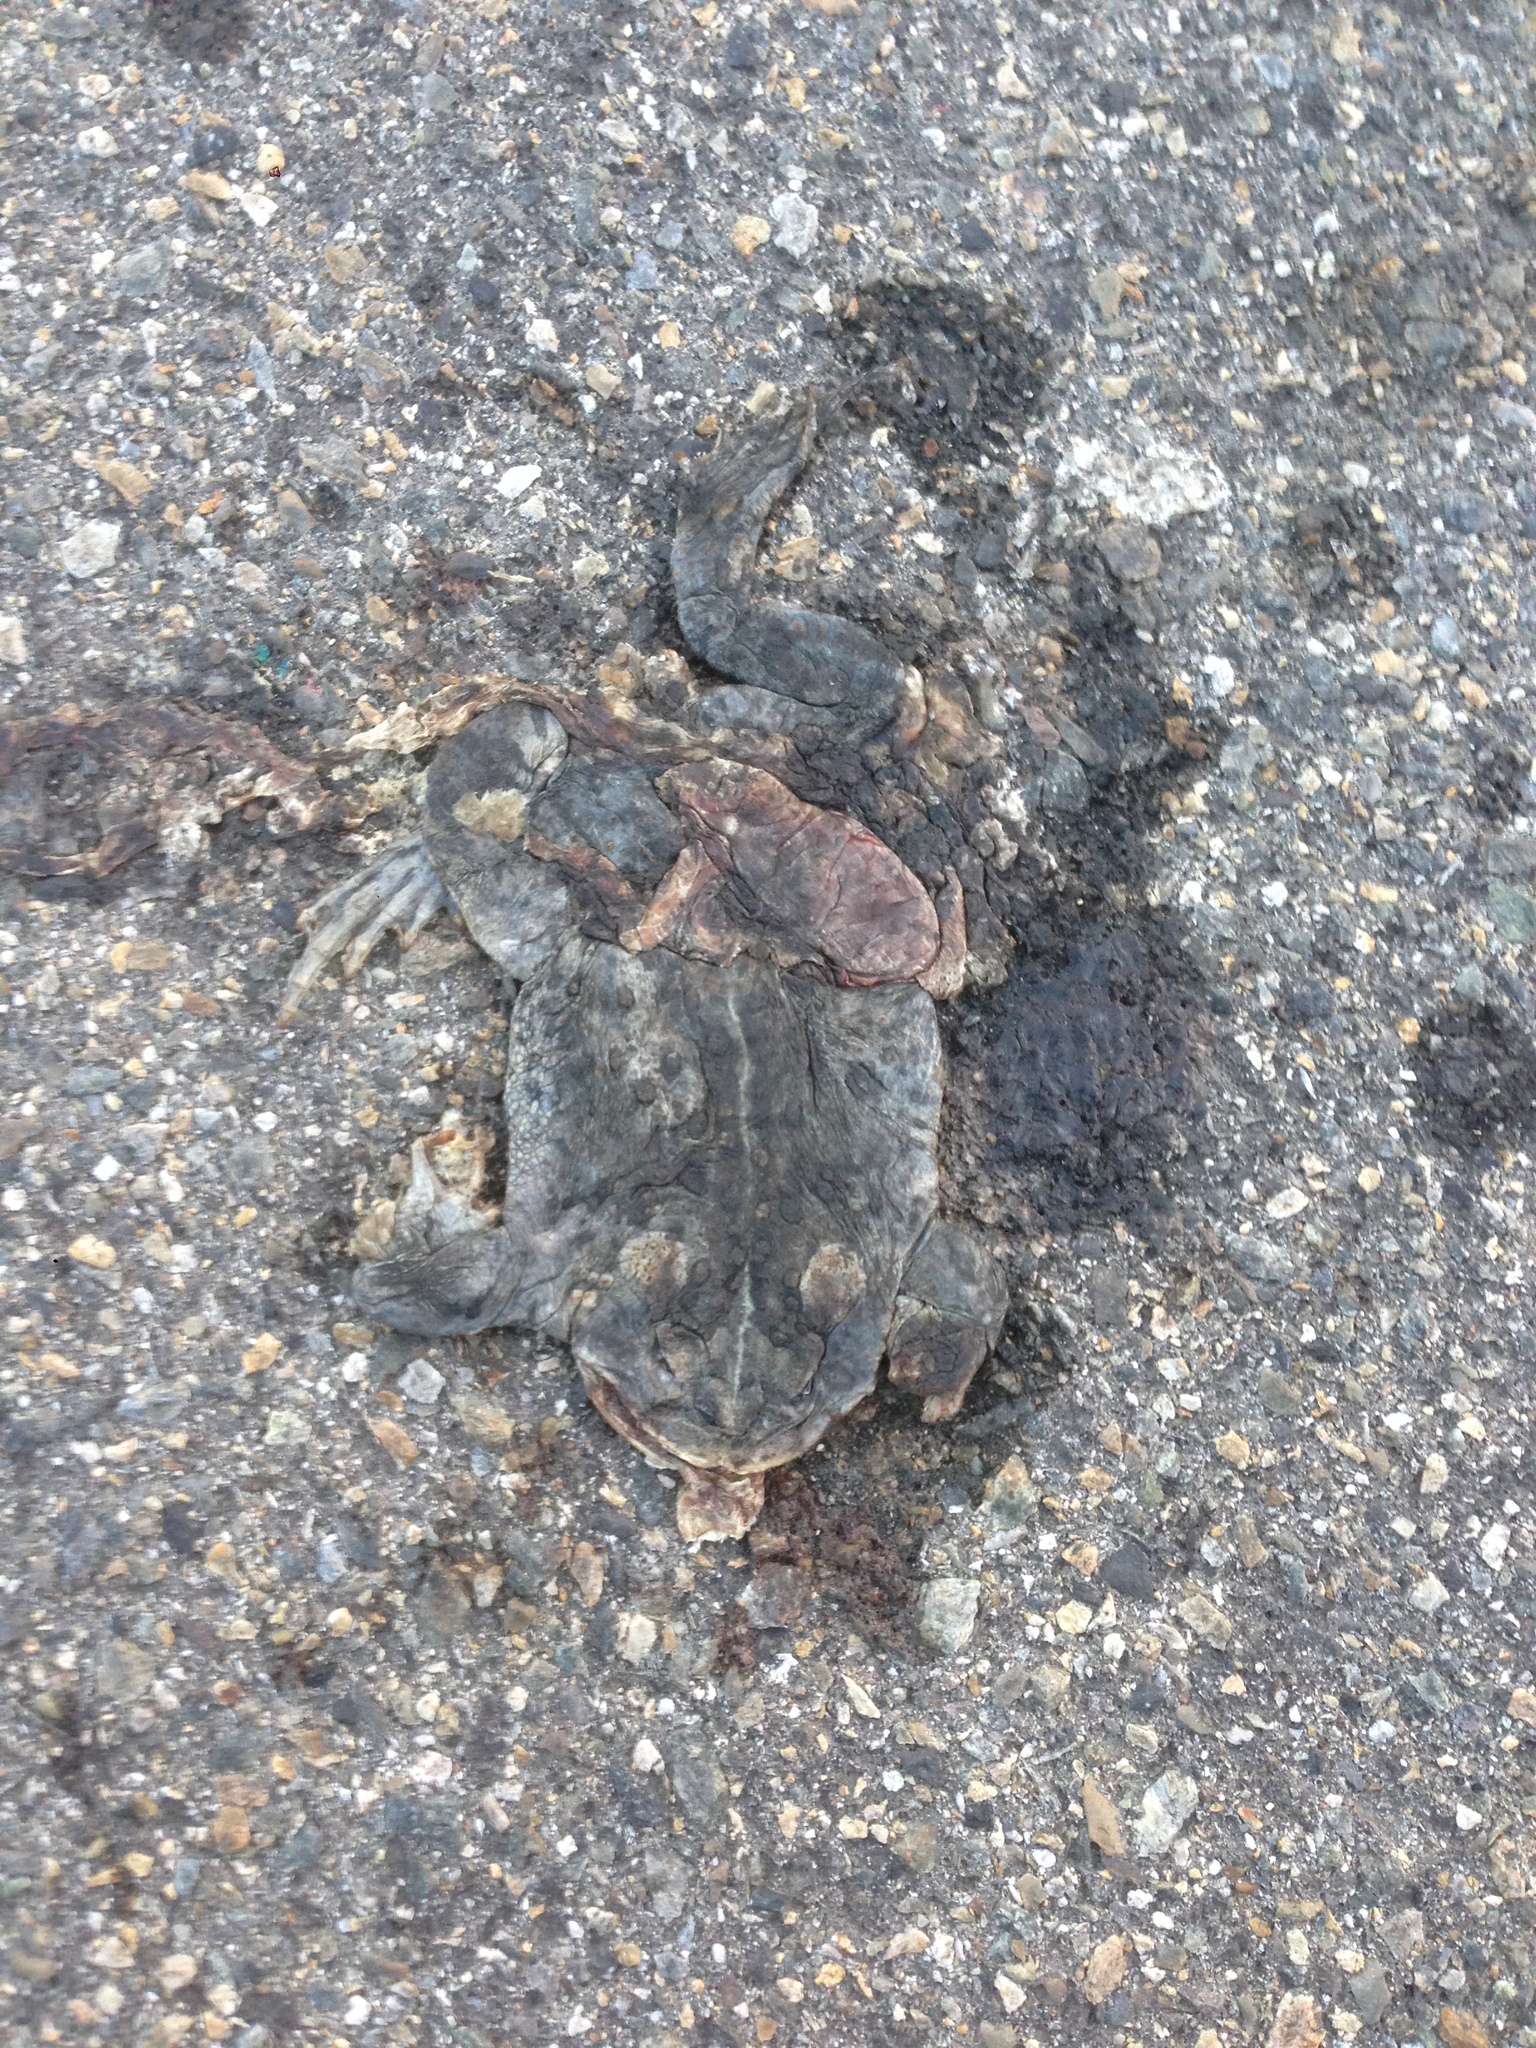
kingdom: Animalia
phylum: Chordata
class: Amphibia
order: Anura
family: Bufonidae
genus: Anaxyrus
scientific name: Anaxyrus boreas
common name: Western toad
